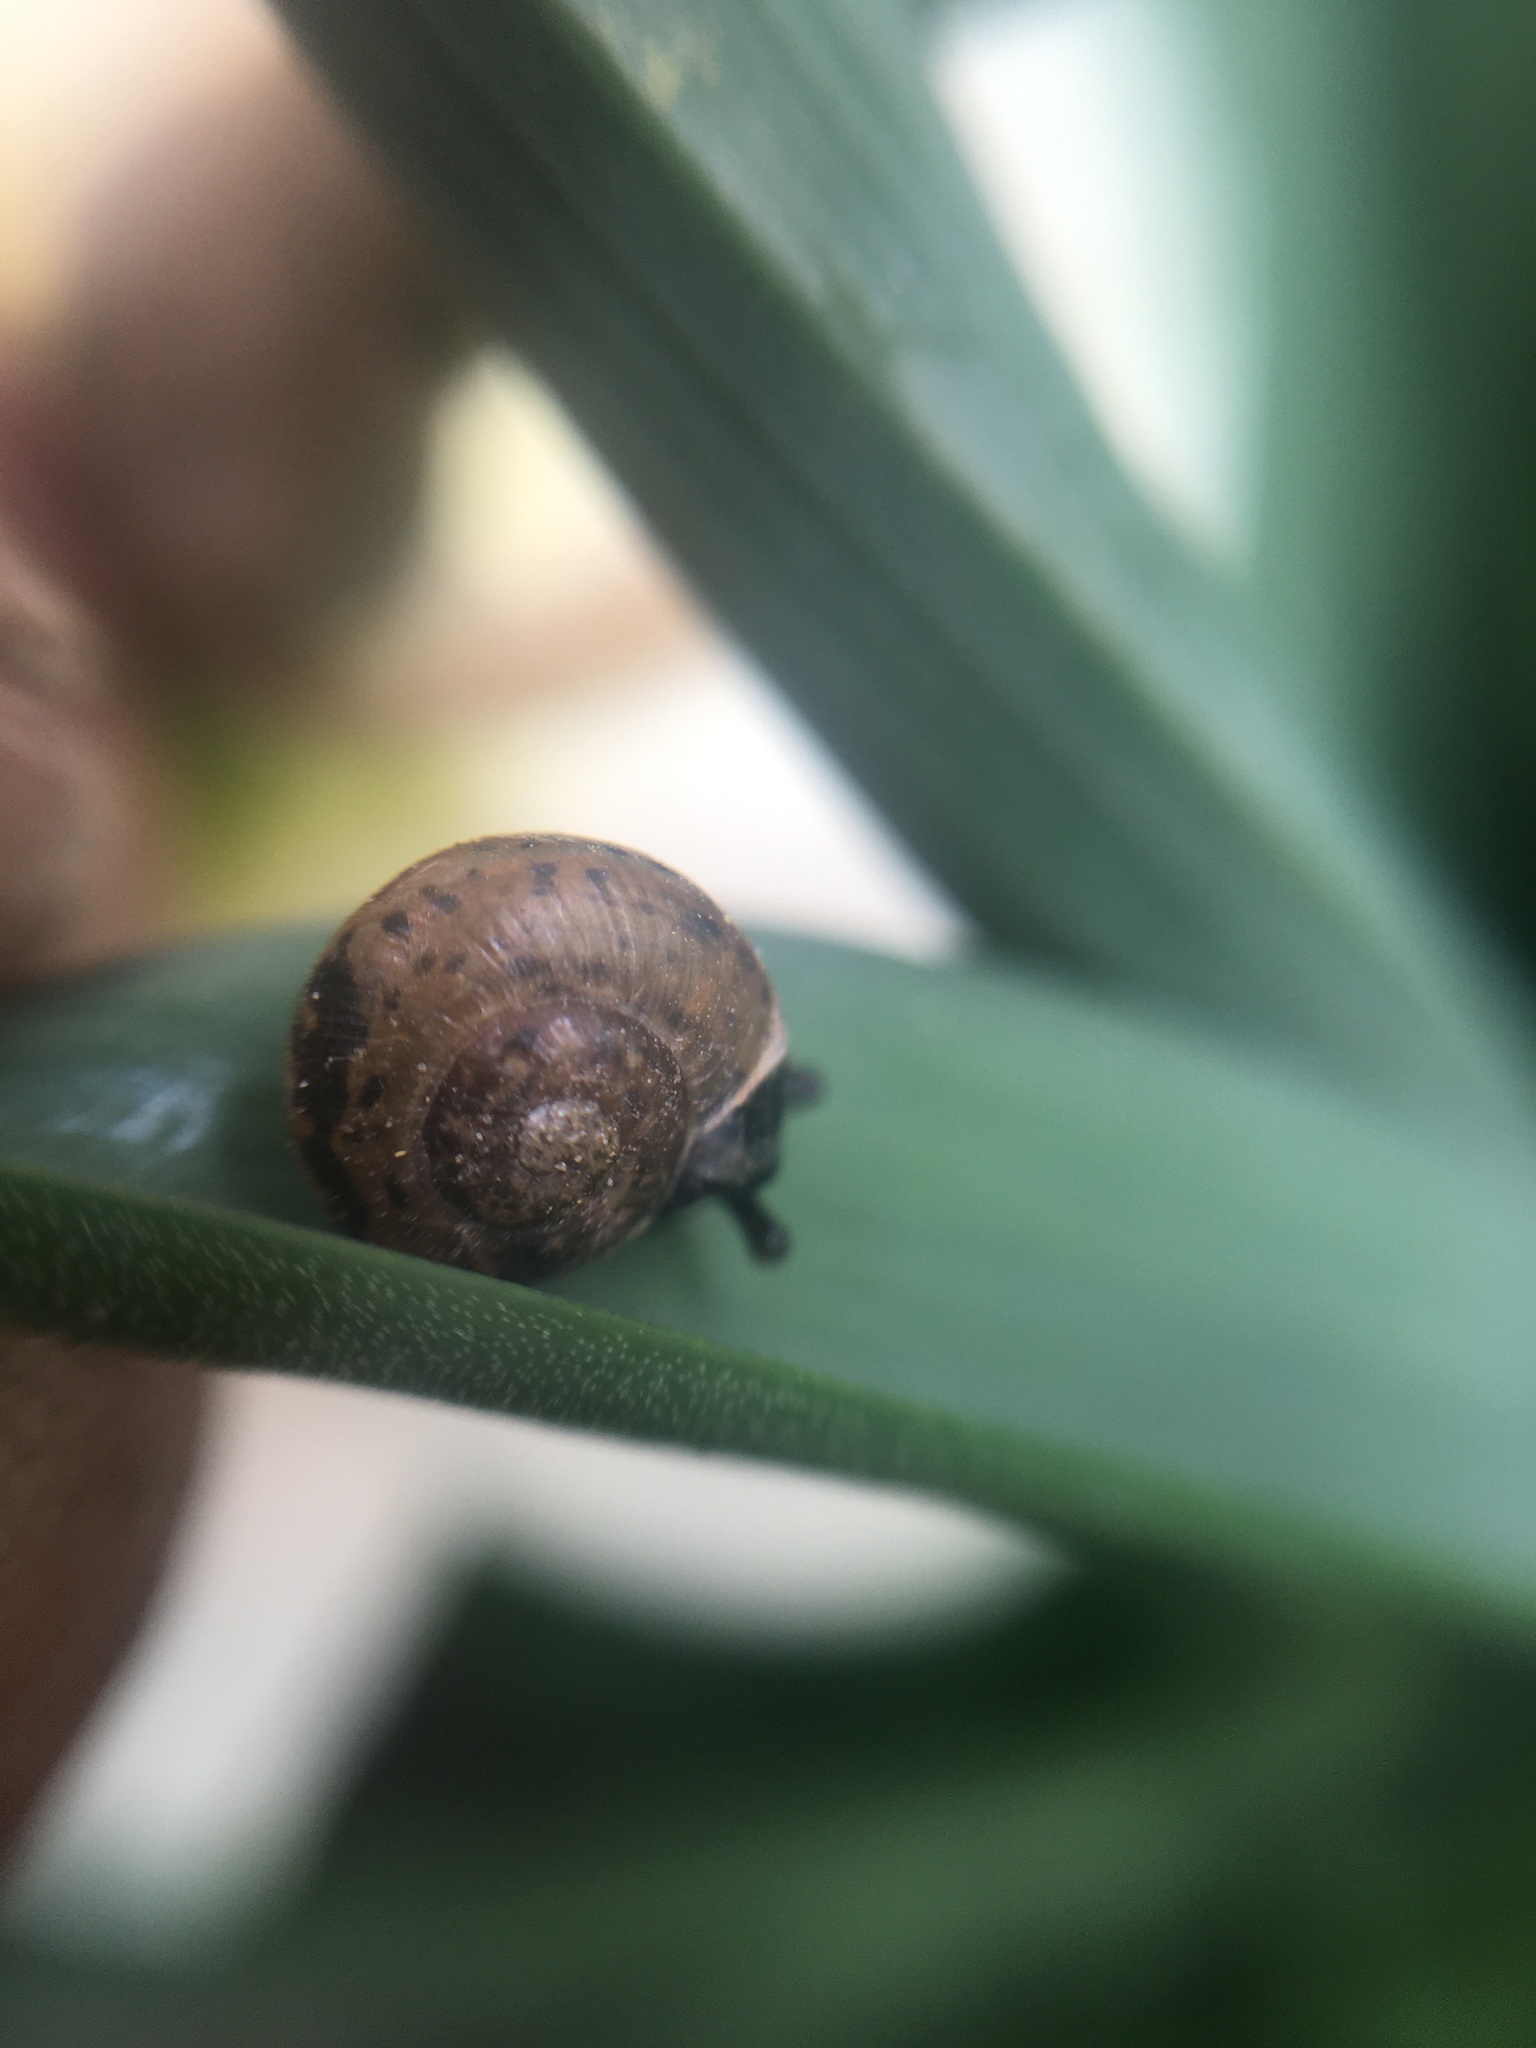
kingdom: Animalia
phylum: Mollusca
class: Gastropoda
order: Stylommatophora
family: Camaenidae
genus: Fruticicola
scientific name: Fruticicola fruticum
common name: Bush snail
